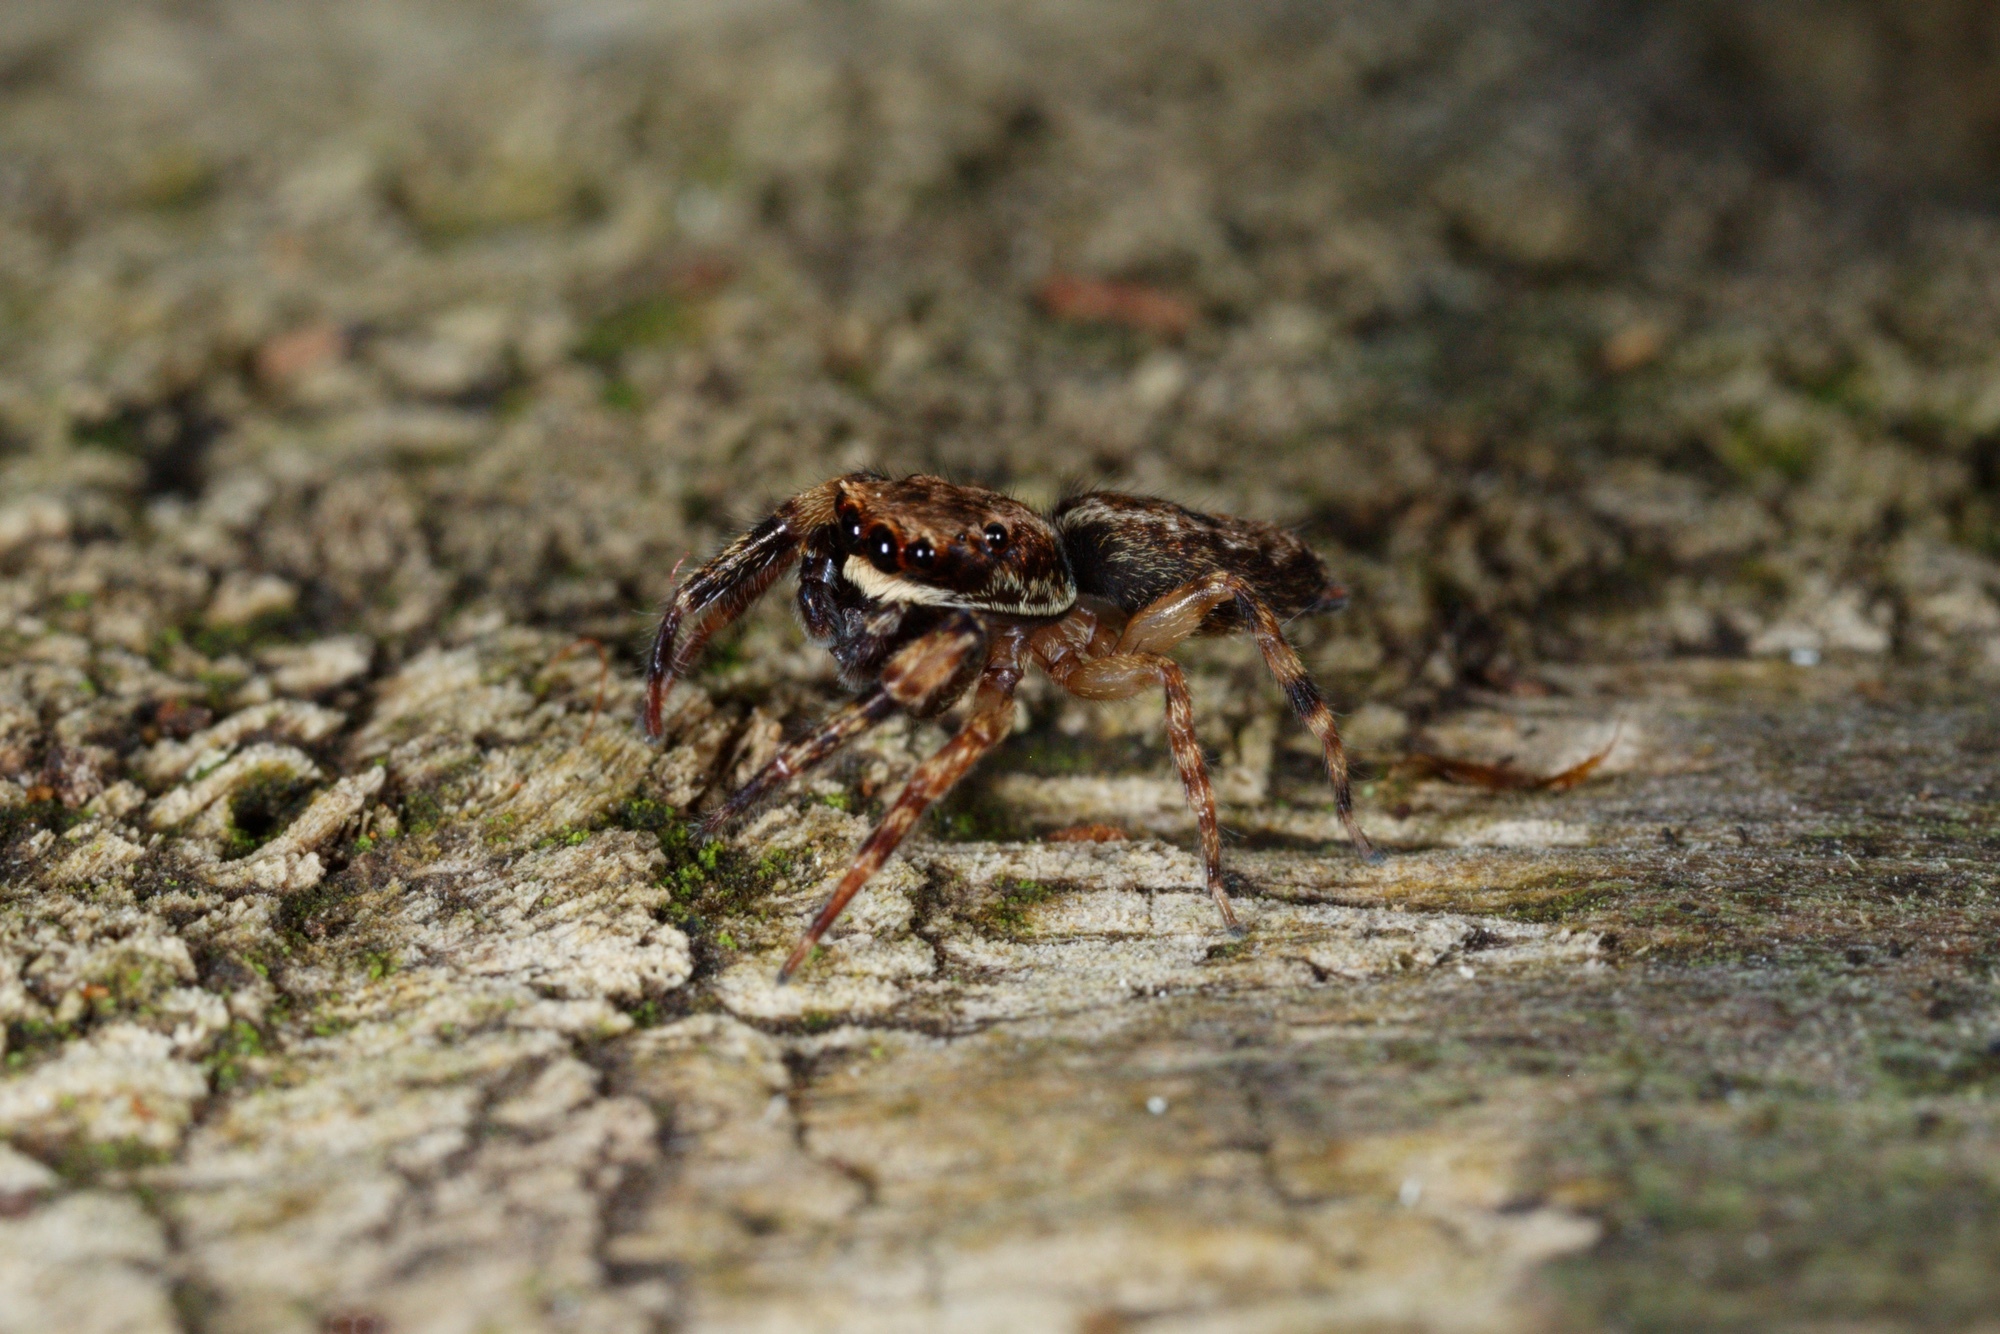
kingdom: Animalia
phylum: Arthropoda
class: Arachnida
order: Araneae
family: Salticidae
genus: Trite
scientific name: Trite auricoma
